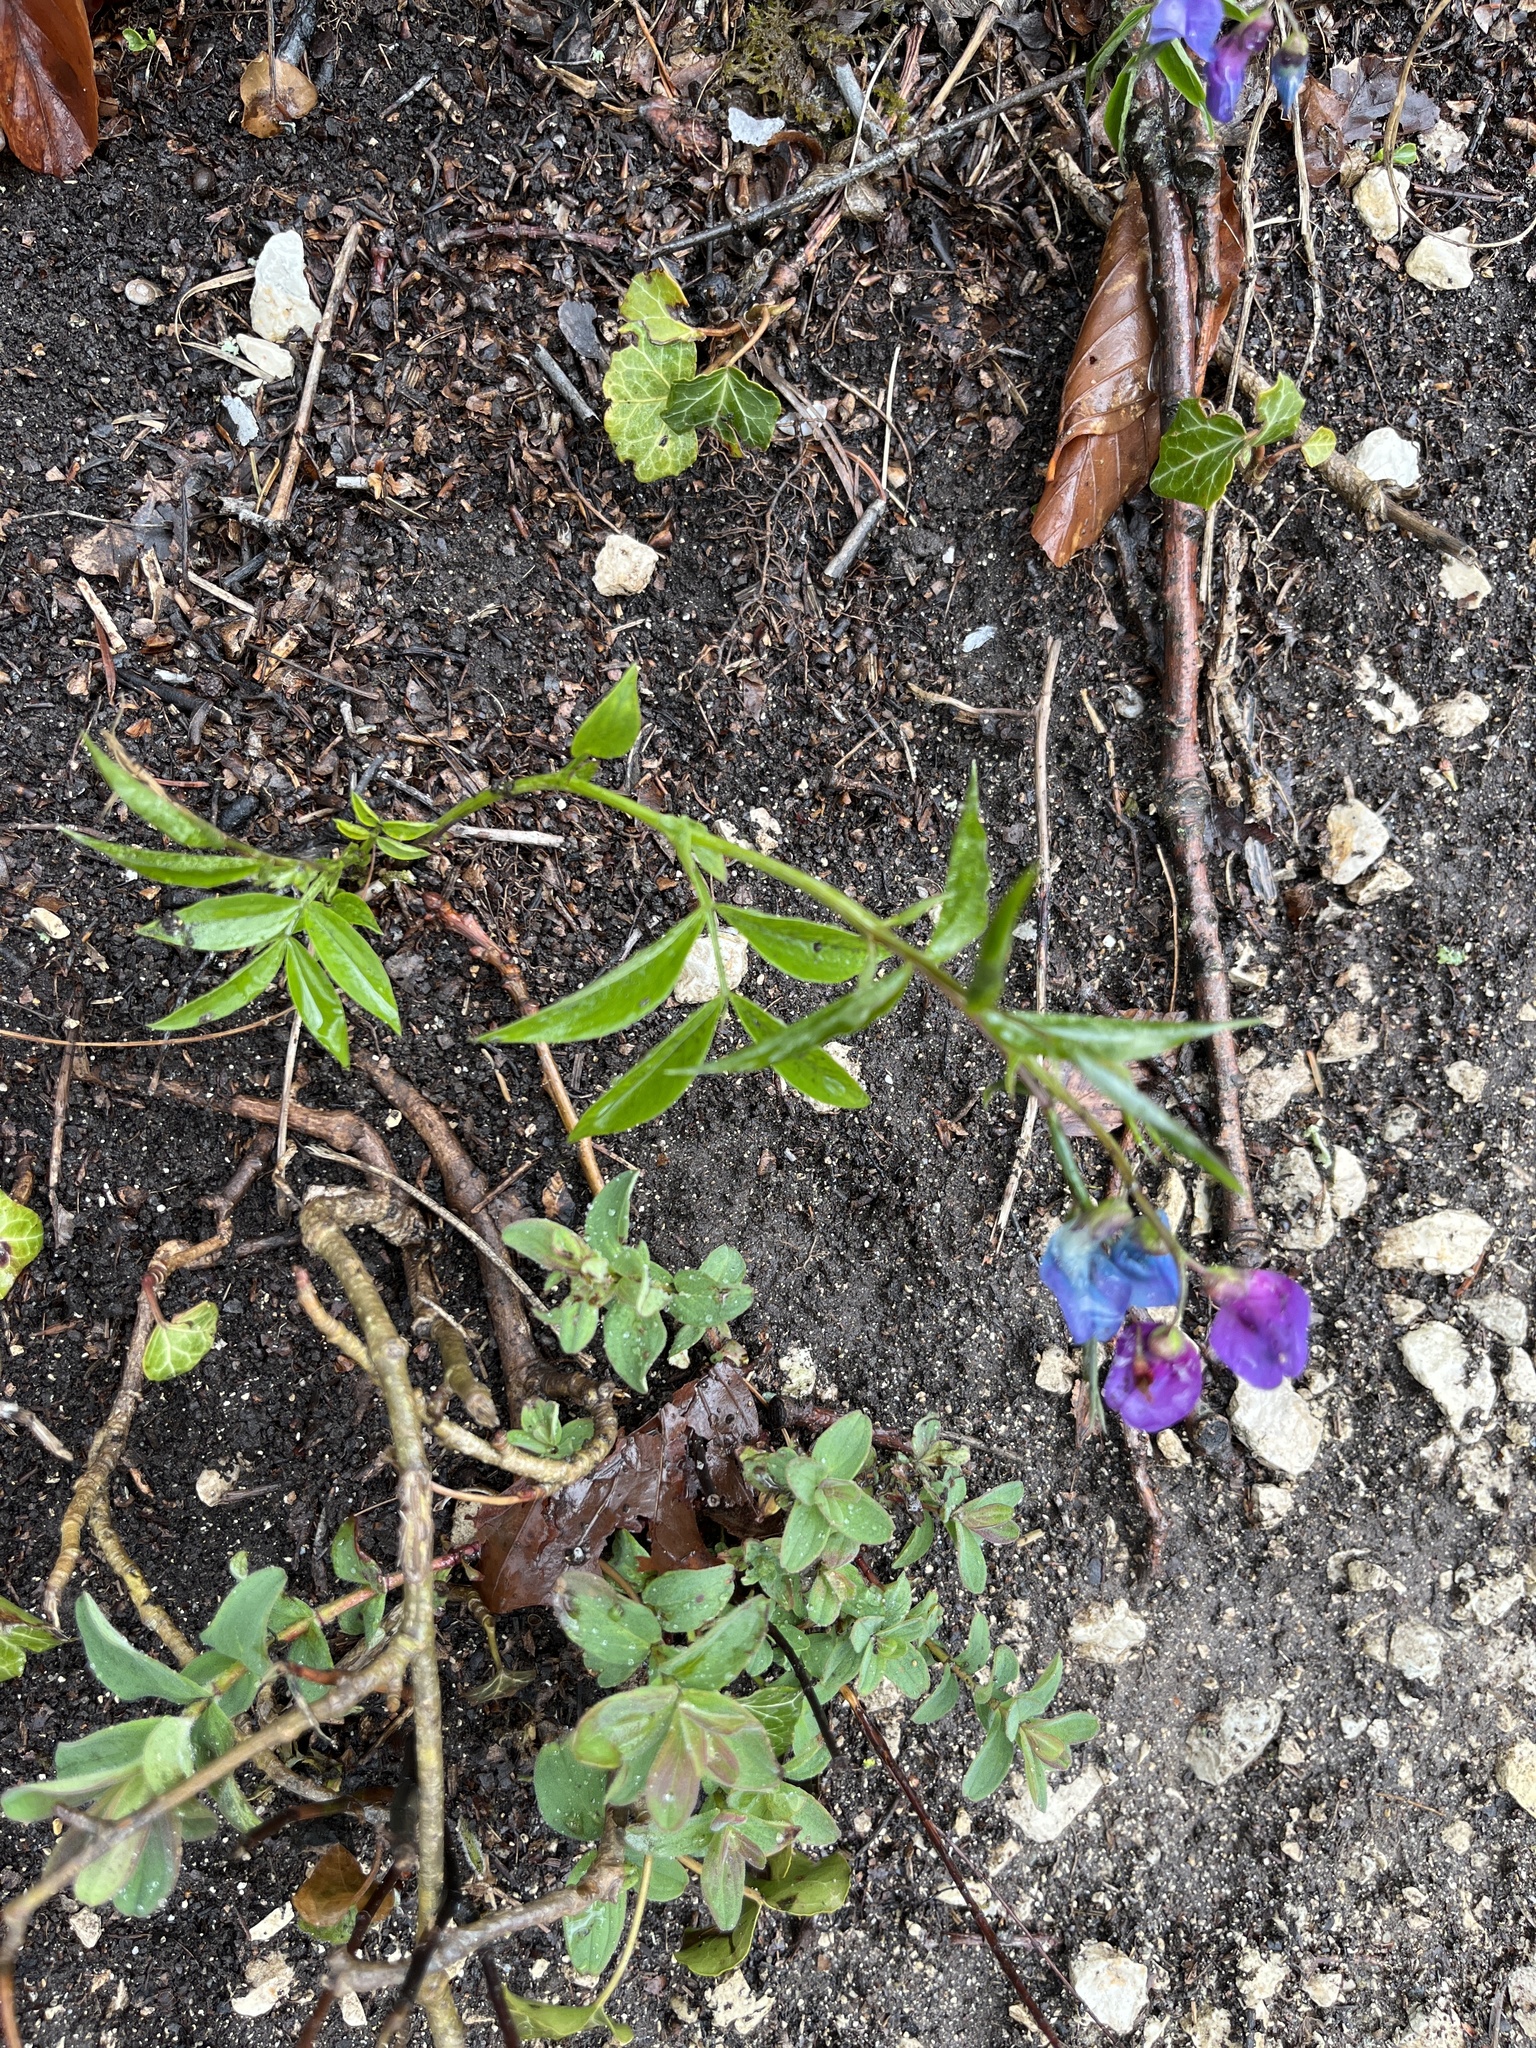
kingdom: Plantae
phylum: Tracheophyta
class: Magnoliopsida
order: Fabales
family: Fabaceae
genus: Lathyrus
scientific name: Lathyrus vernus
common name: Spring pea
